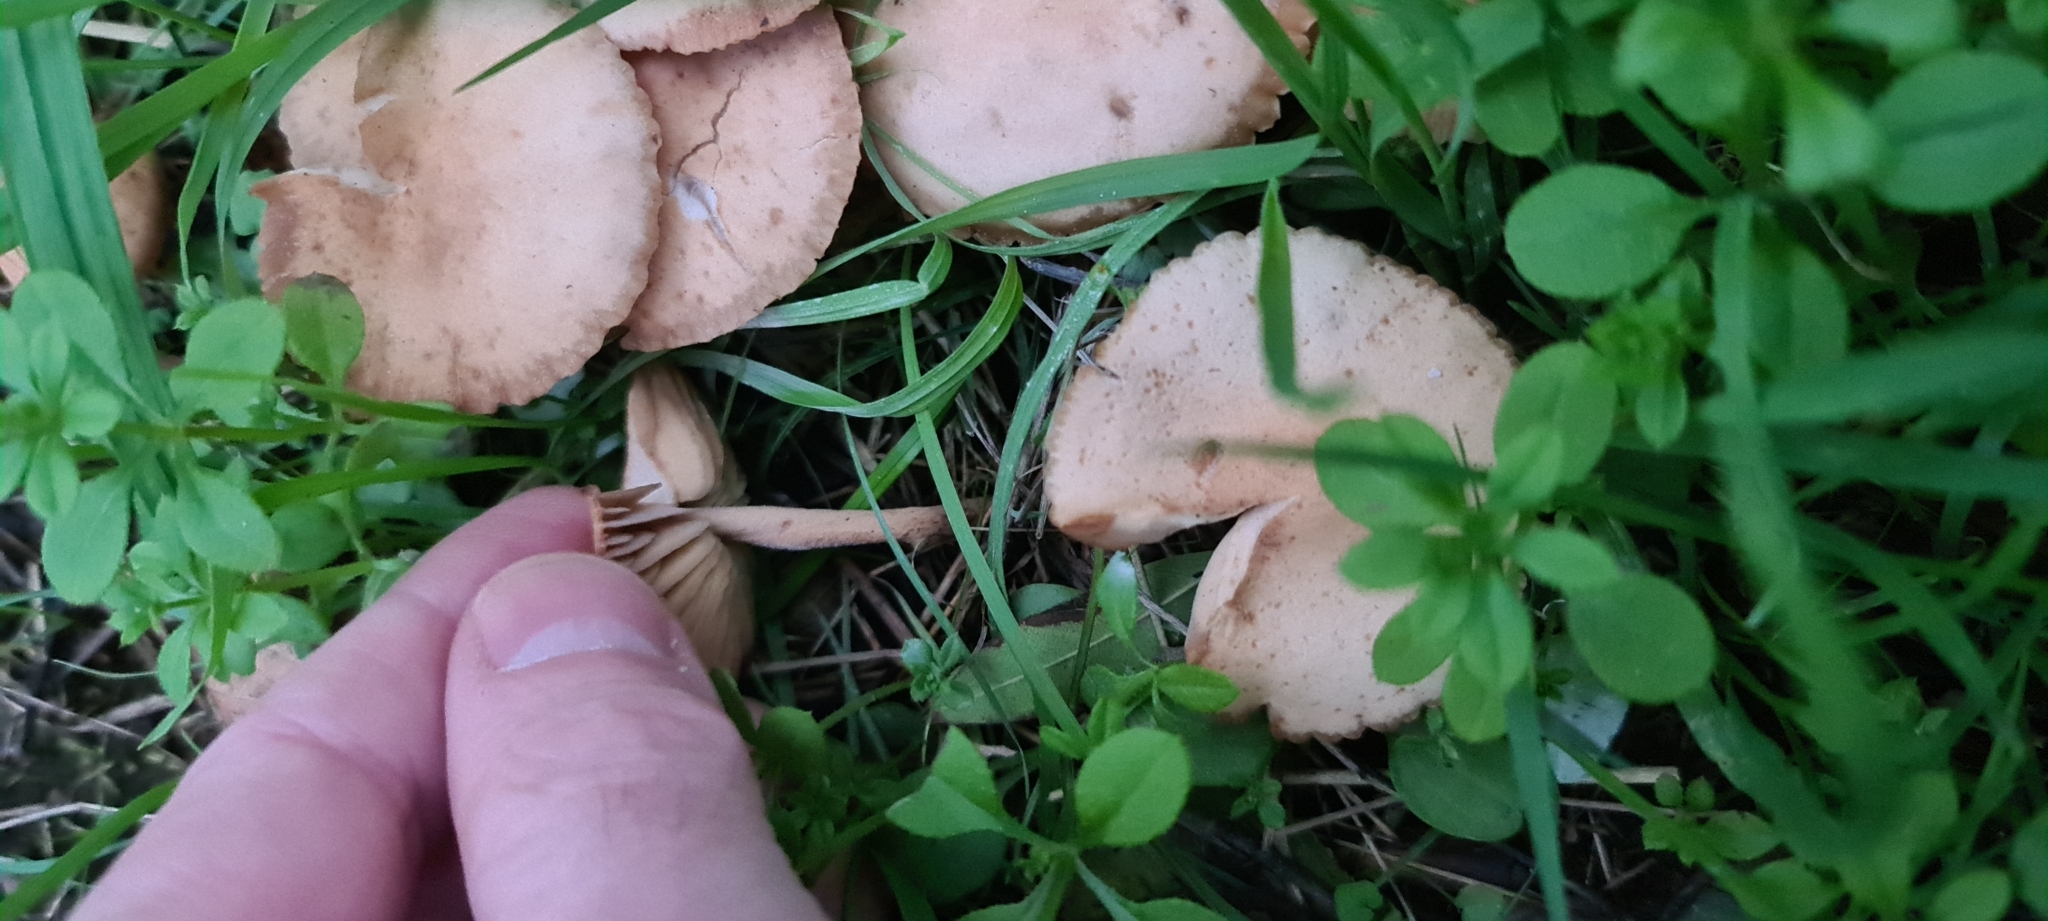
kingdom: Fungi
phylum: Basidiomycota
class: Agaricomycetes
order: Agaricales
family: Marasmiaceae
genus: Marasmius
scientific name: Marasmius oreades
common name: Fairy ring champignon
